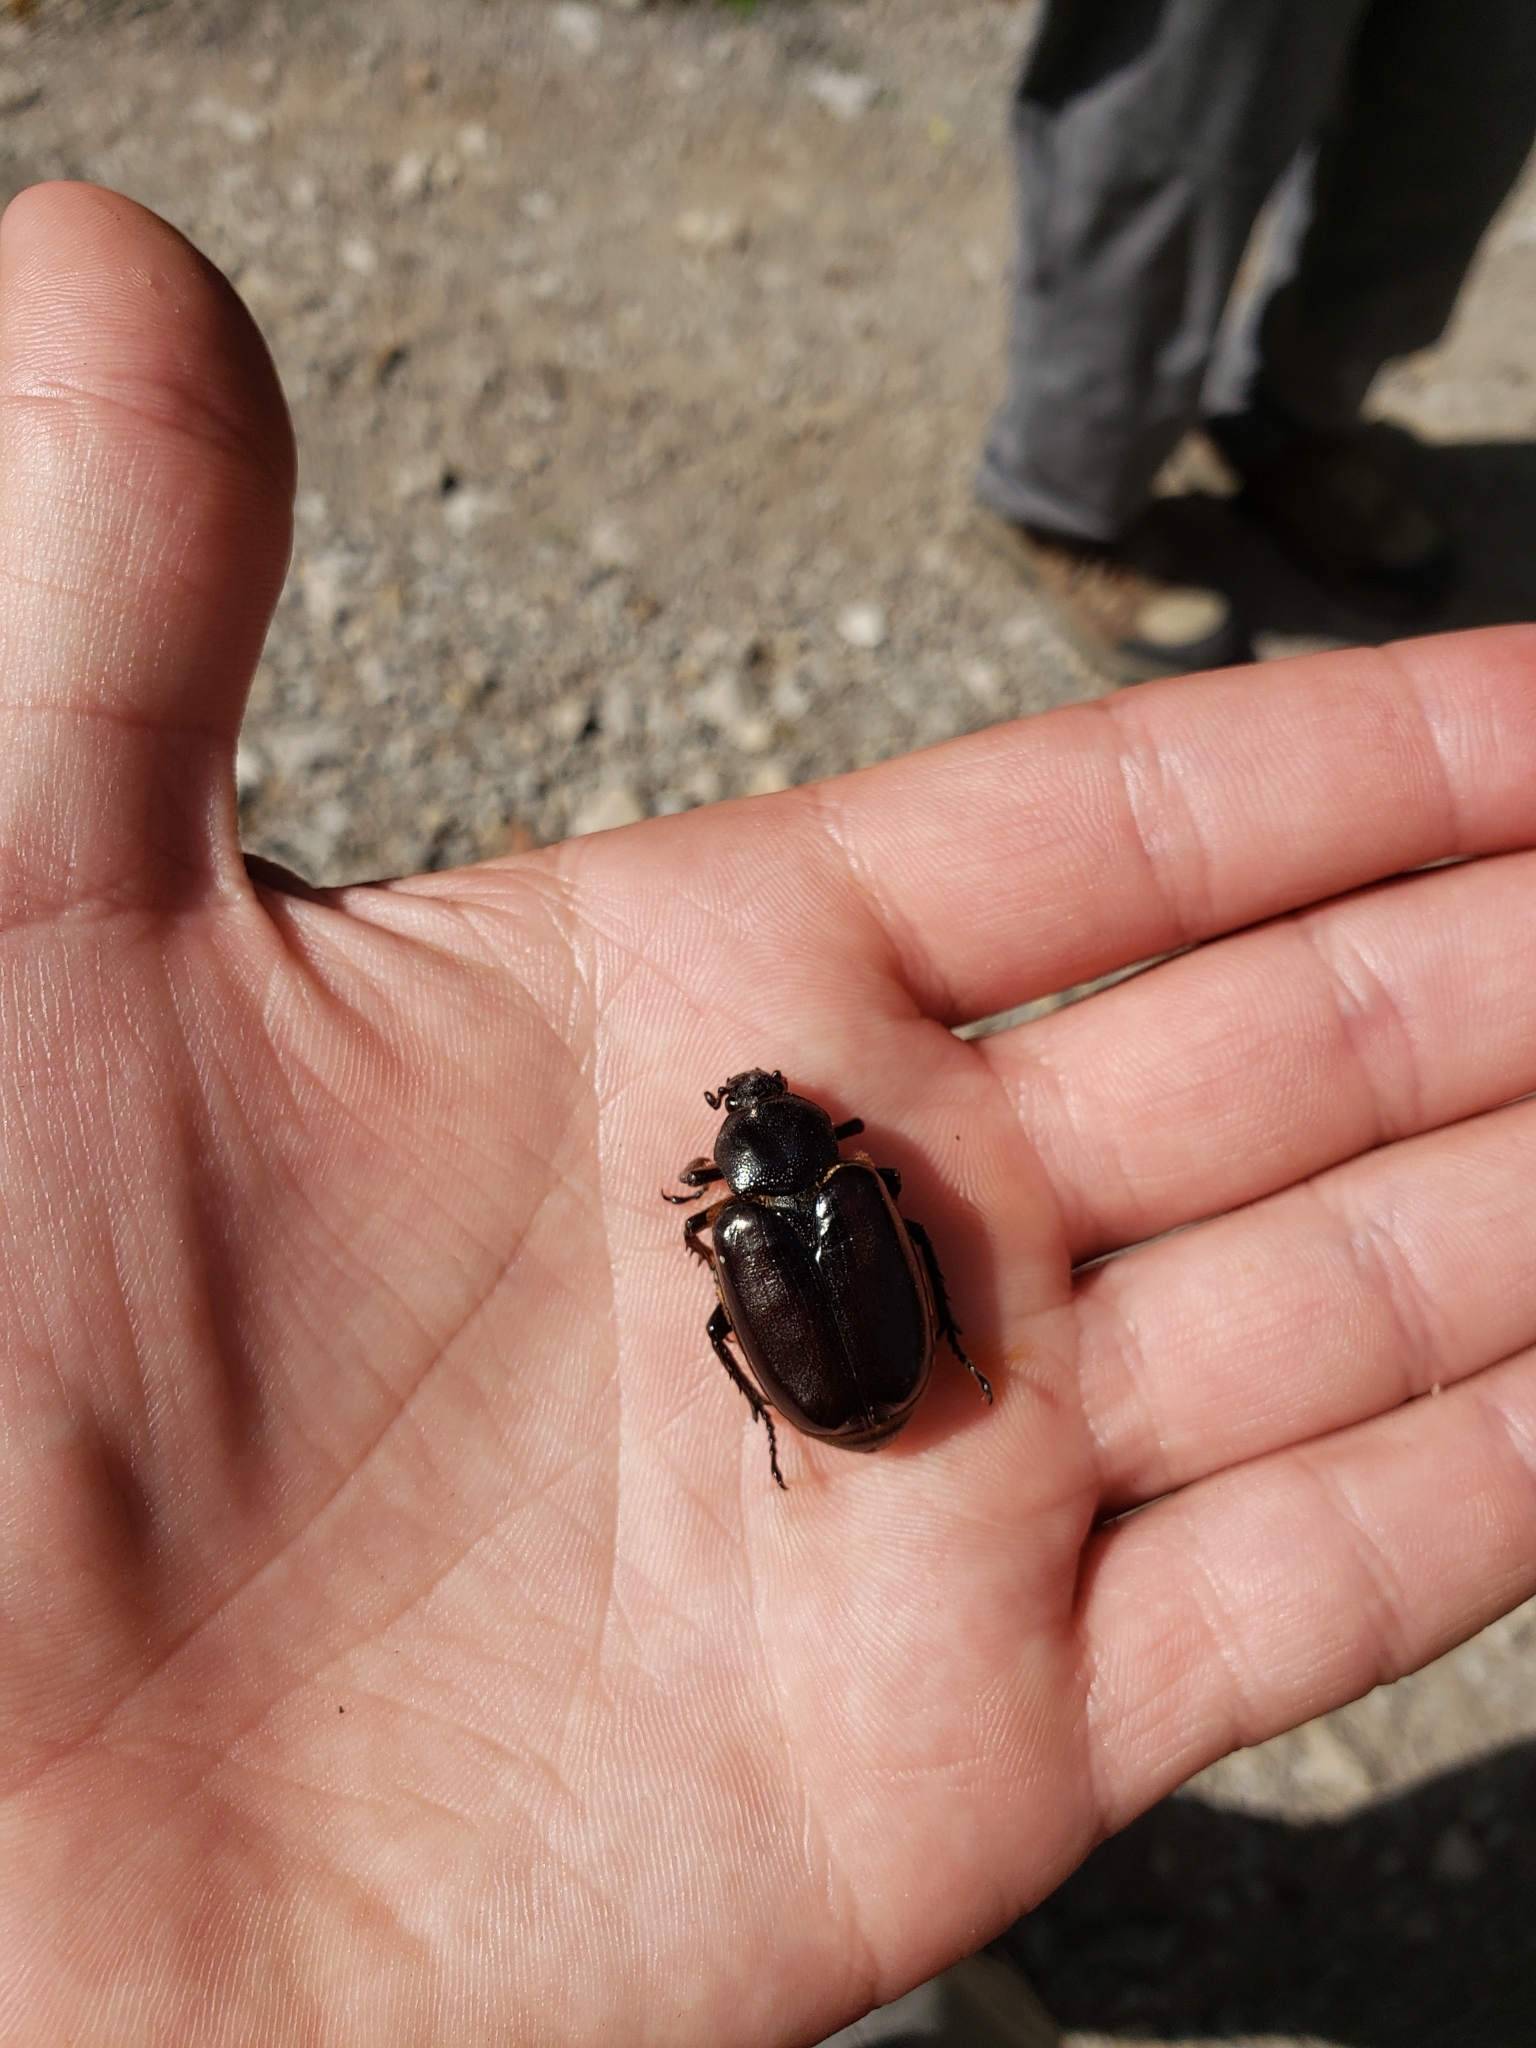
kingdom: Animalia
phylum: Arthropoda
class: Insecta
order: Coleoptera
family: Scarabaeidae
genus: Osmoderma
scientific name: Osmoderma eremicola
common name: Hermit flower beetle
